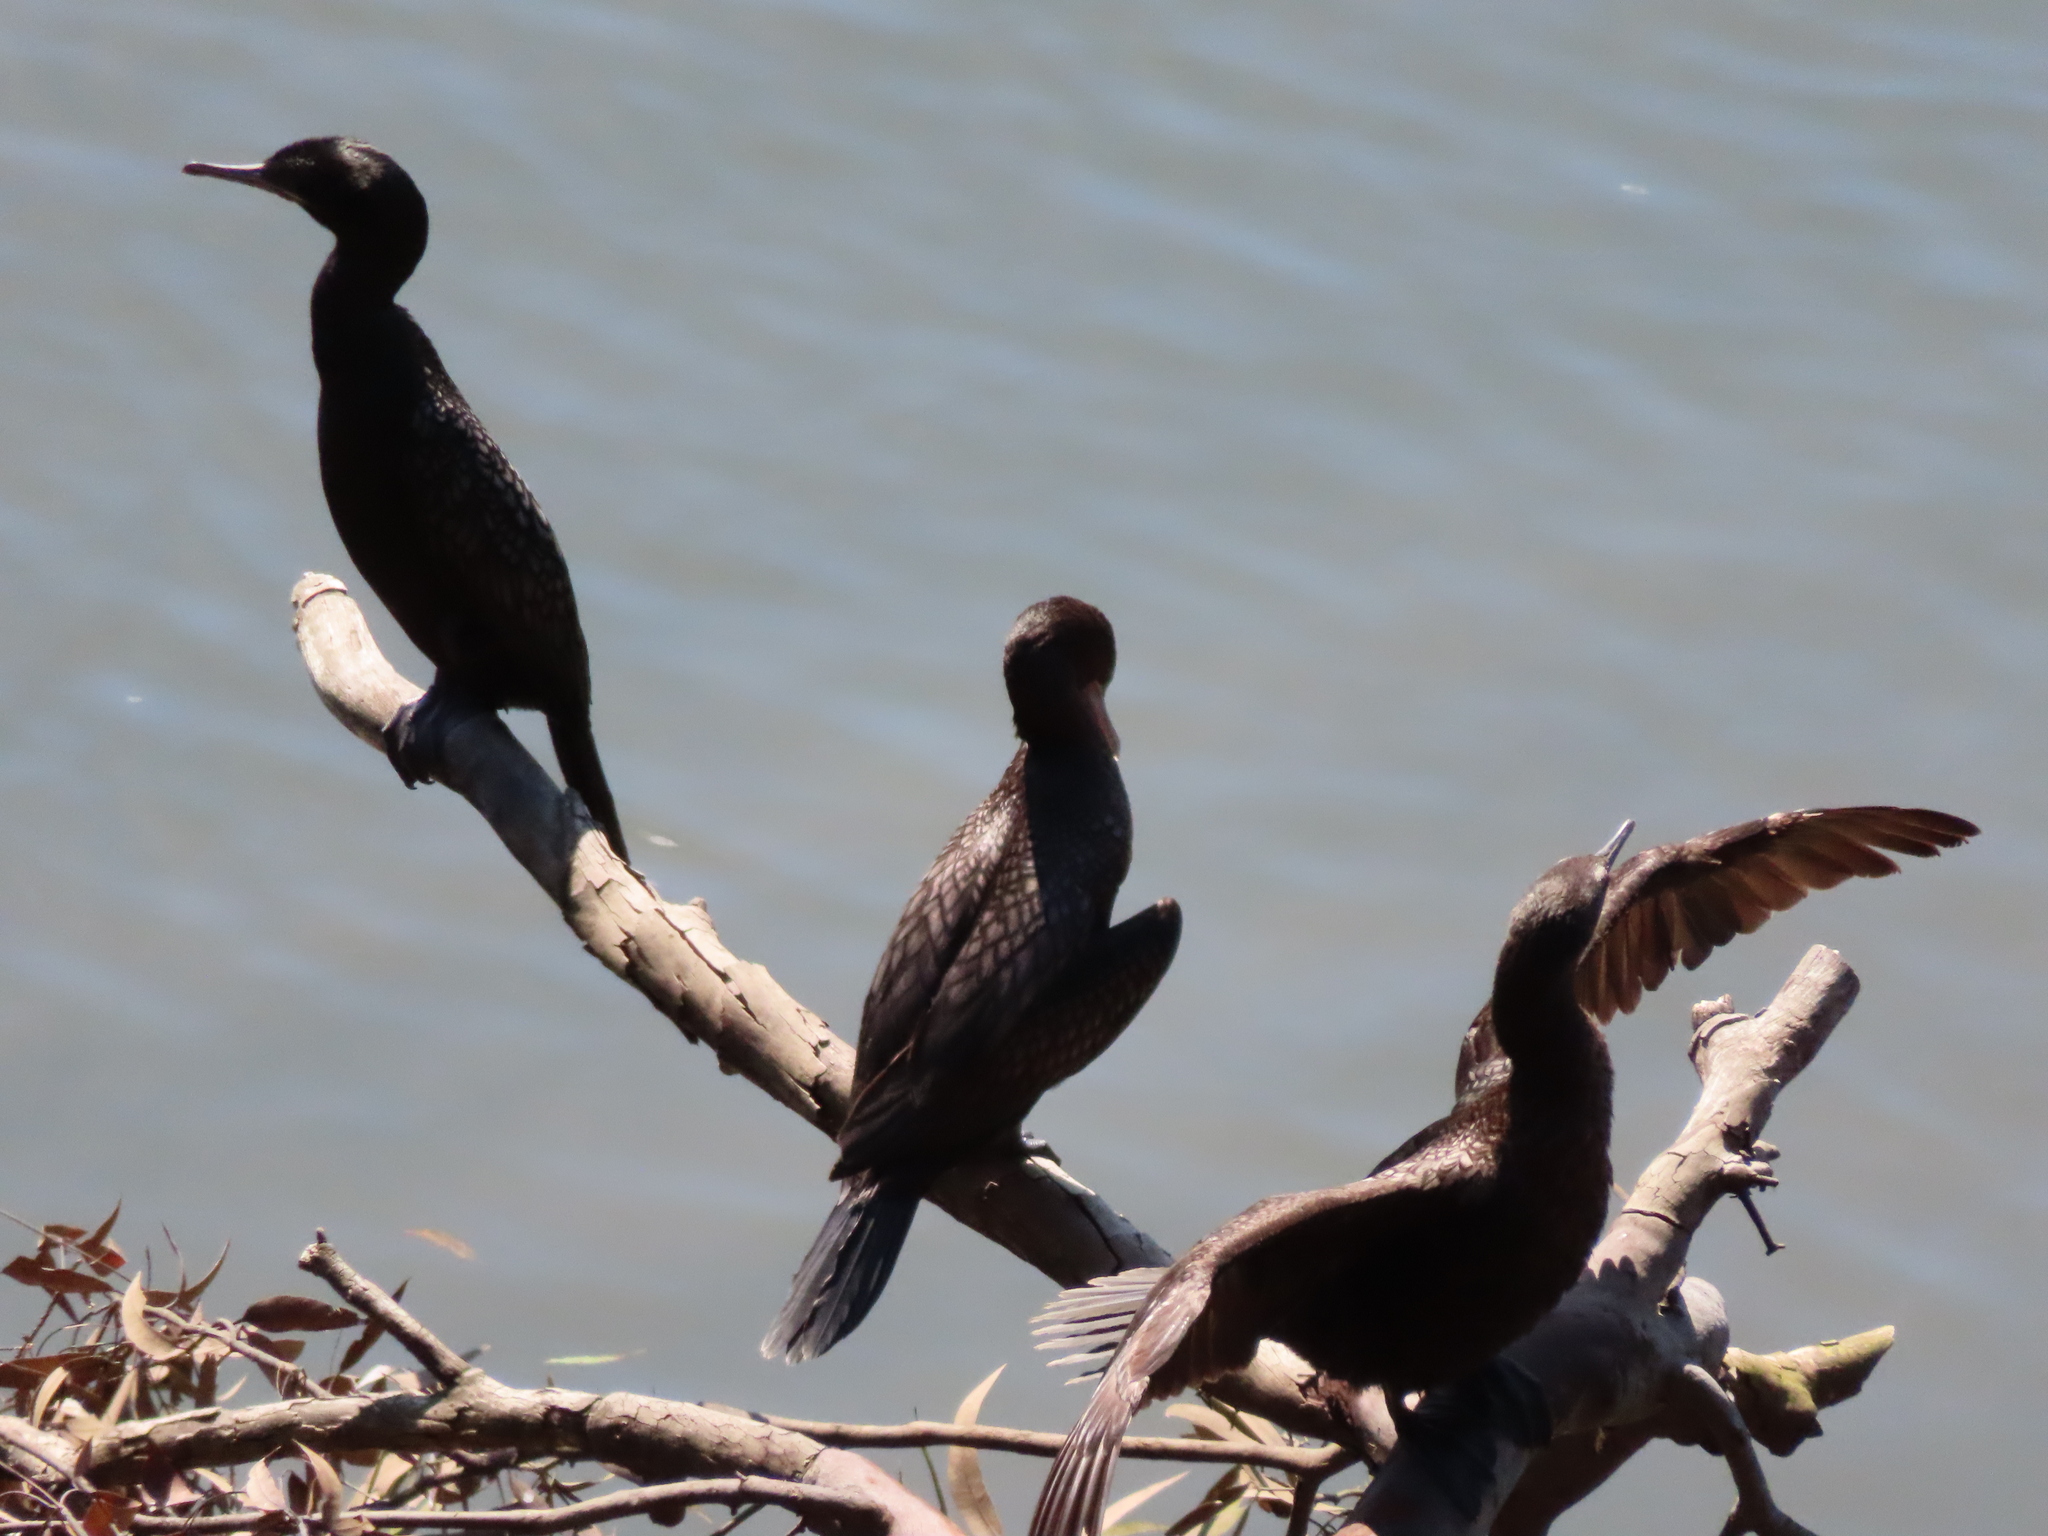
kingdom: Animalia
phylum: Chordata
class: Aves
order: Suliformes
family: Phalacrocoracidae
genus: Phalacrocorax
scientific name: Phalacrocorax sulcirostris
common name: Little black cormorant
